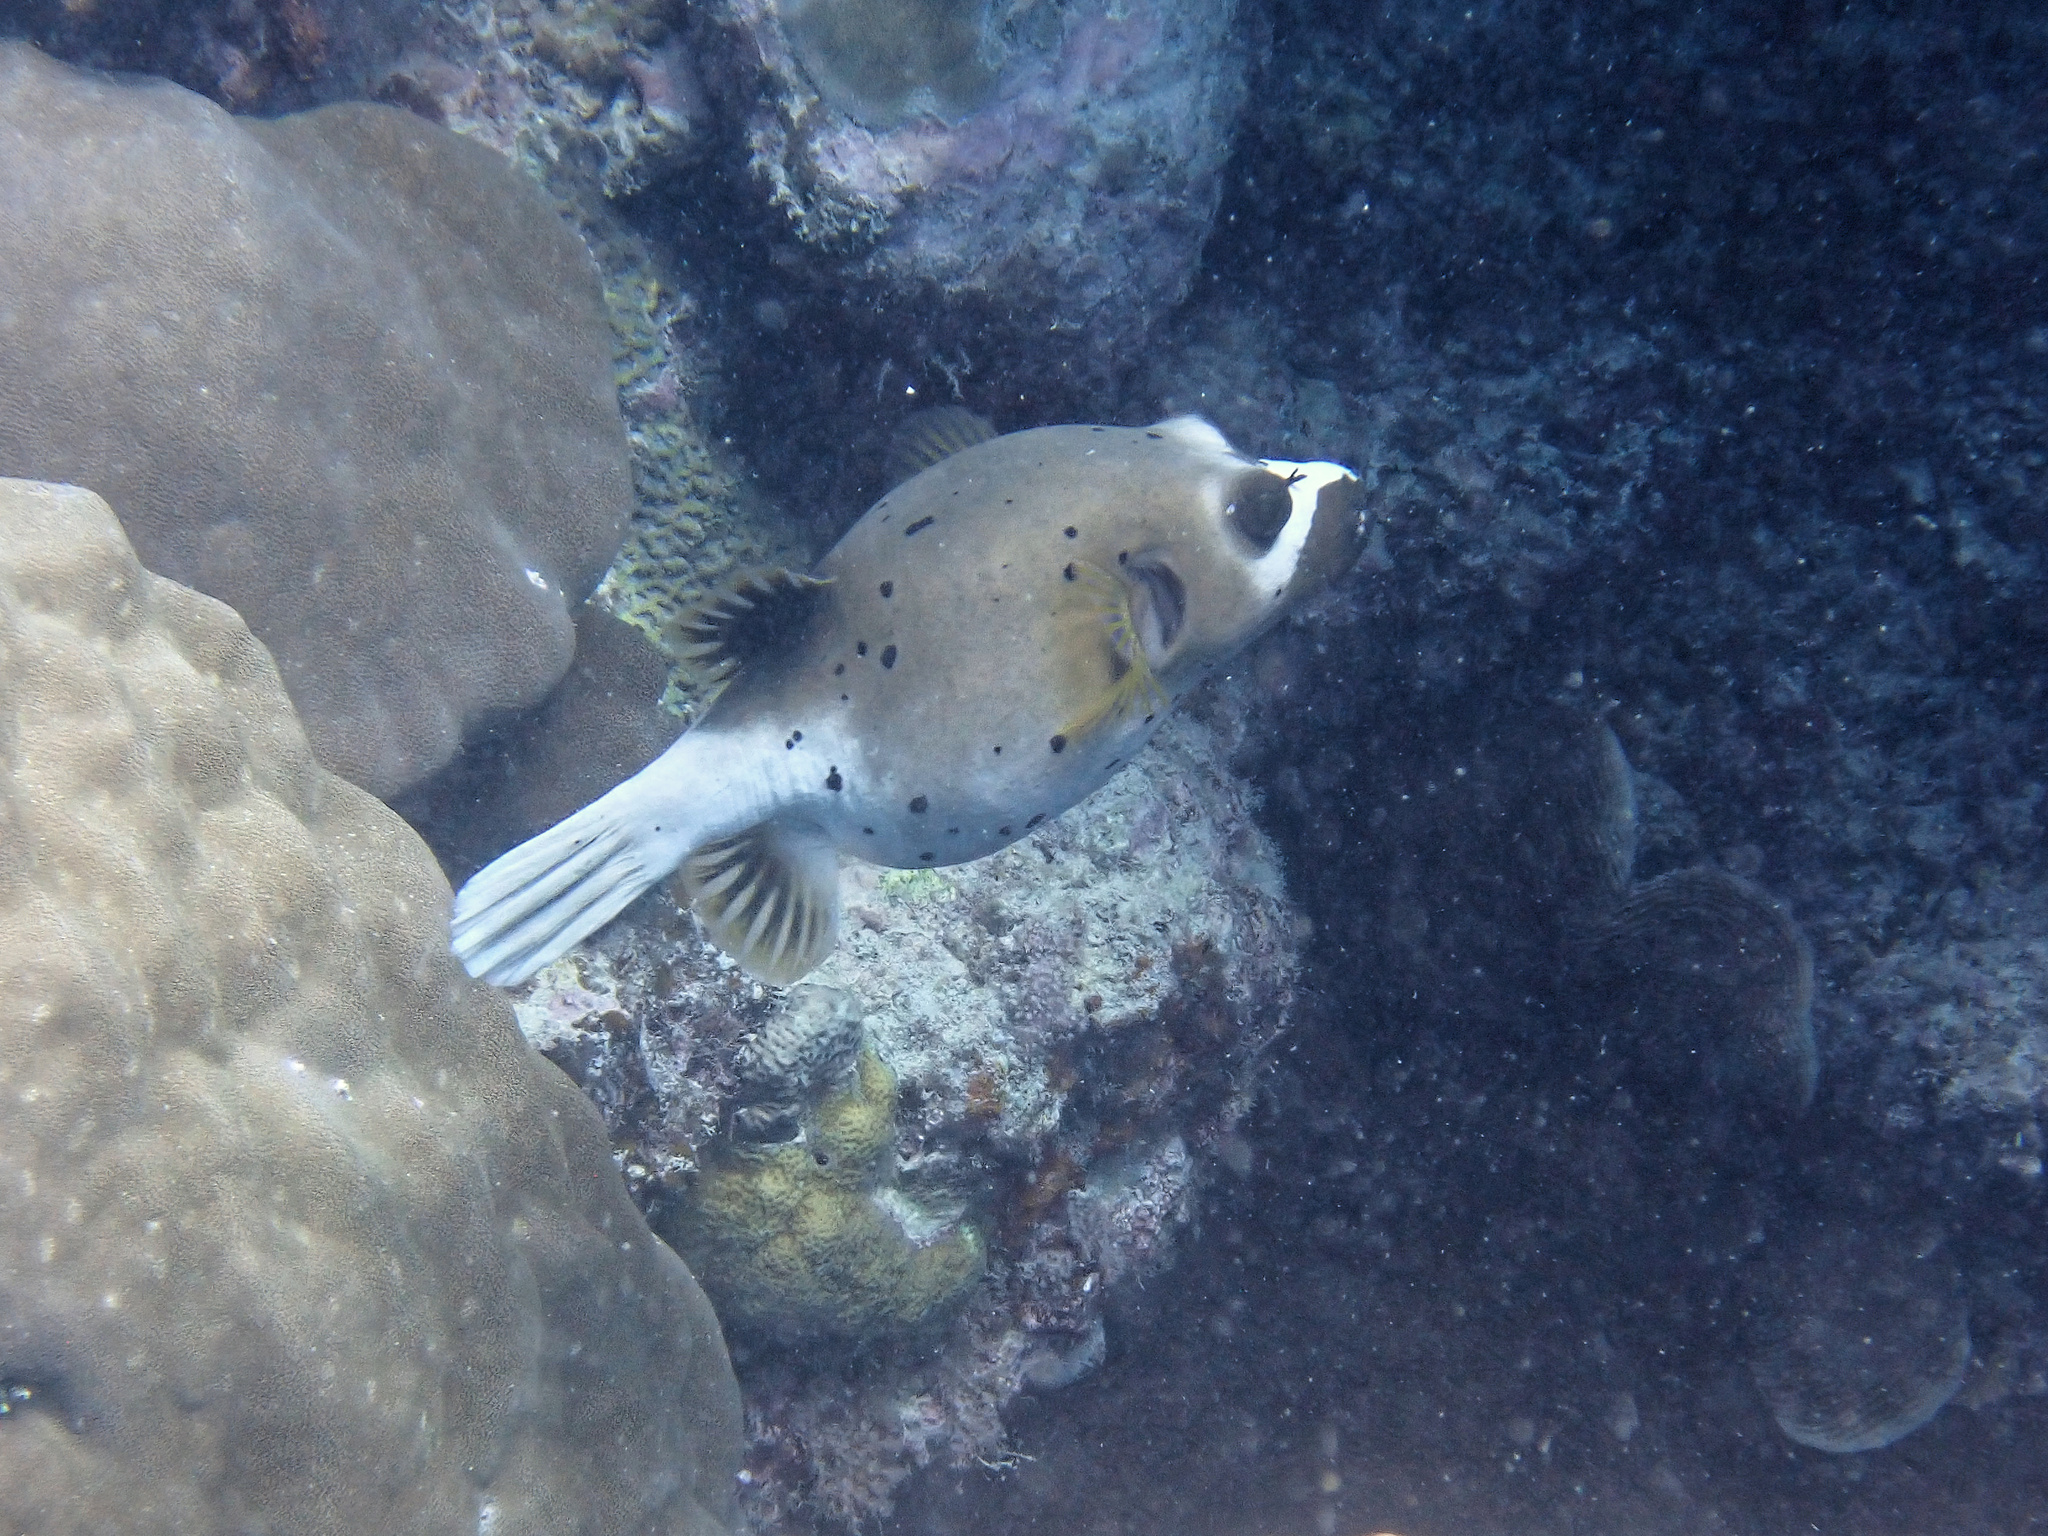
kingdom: Animalia
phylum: Chordata
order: Tetraodontiformes
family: Tetraodontidae
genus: Arothron
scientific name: Arothron nigropunctatus
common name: Black spotted blow fish
